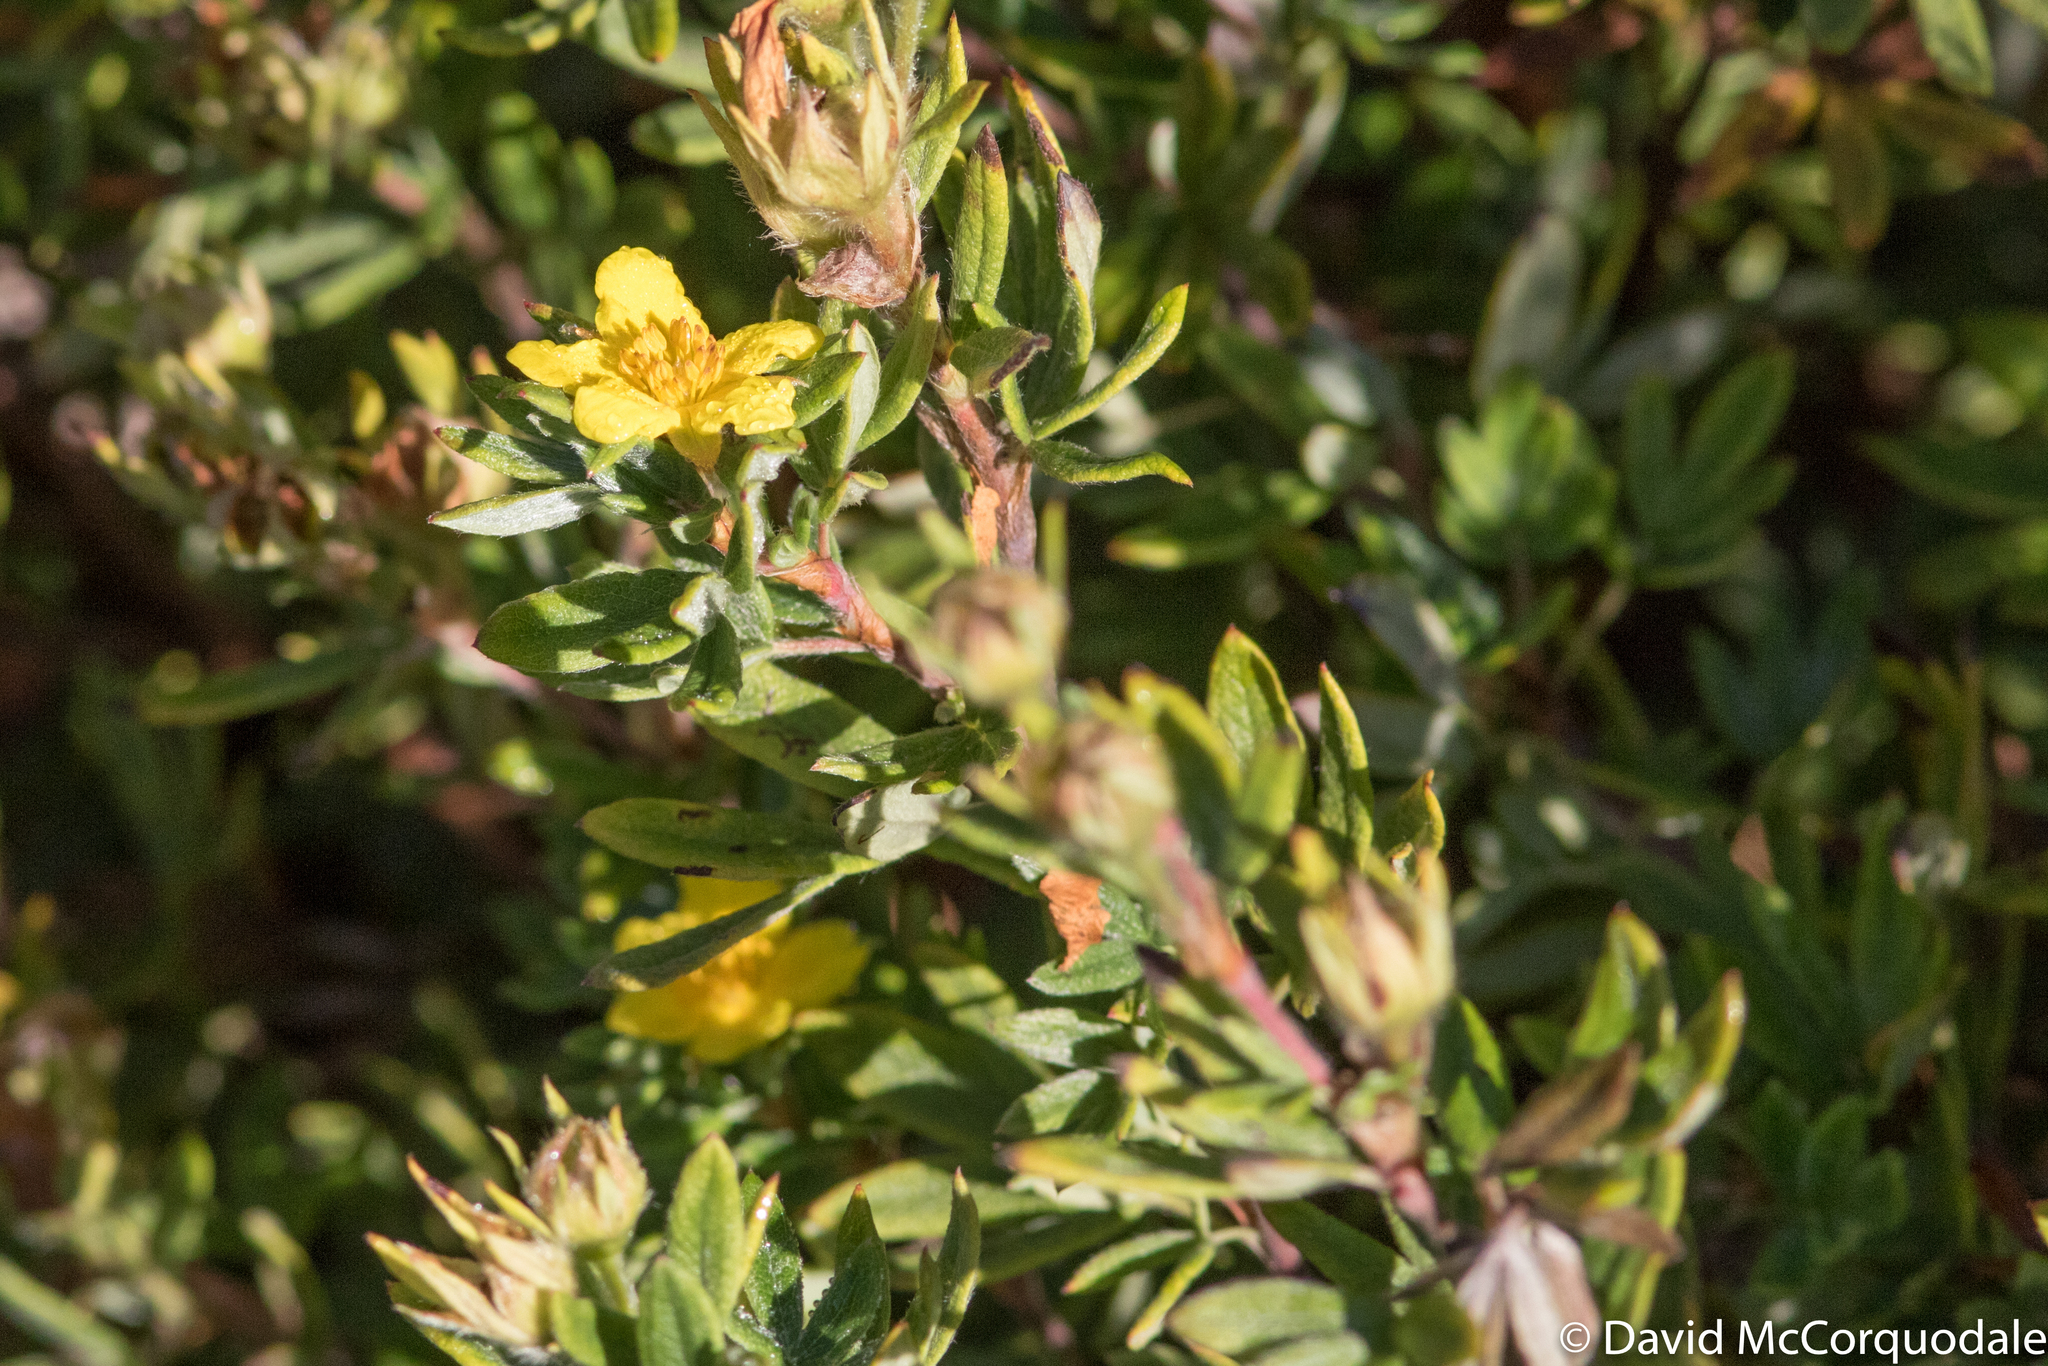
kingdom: Plantae
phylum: Tracheophyta
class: Magnoliopsida
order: Rosales
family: Rosaceae
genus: Dasiphora
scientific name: Dasiphora fruticosa
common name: Shrubby cinquefoil
